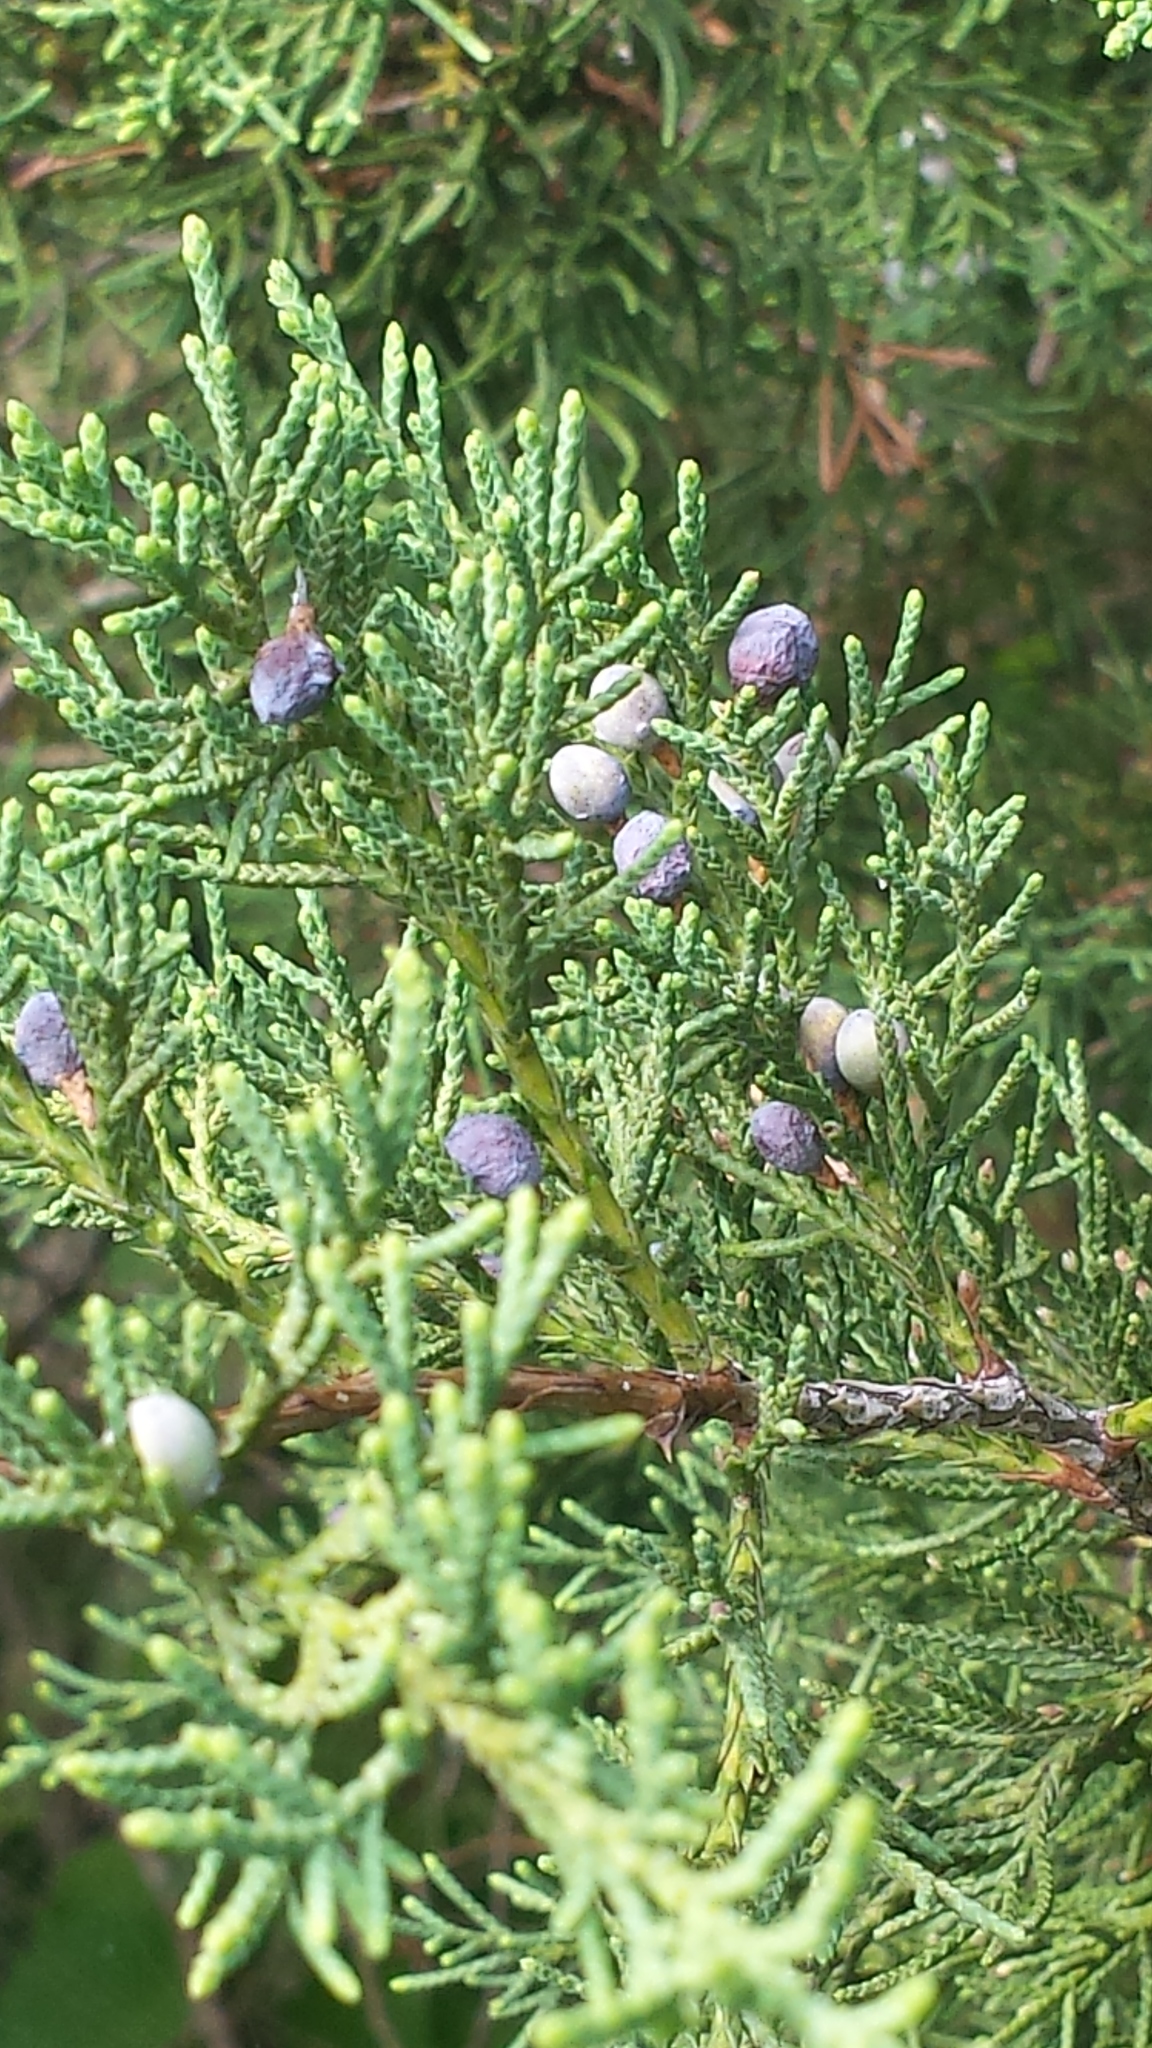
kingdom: Plantae
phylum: Tracheophyta
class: Pinopsida
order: Pinales
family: Cupressaceae
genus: Juniperus
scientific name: Juniperus virginiana
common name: Red juniper
